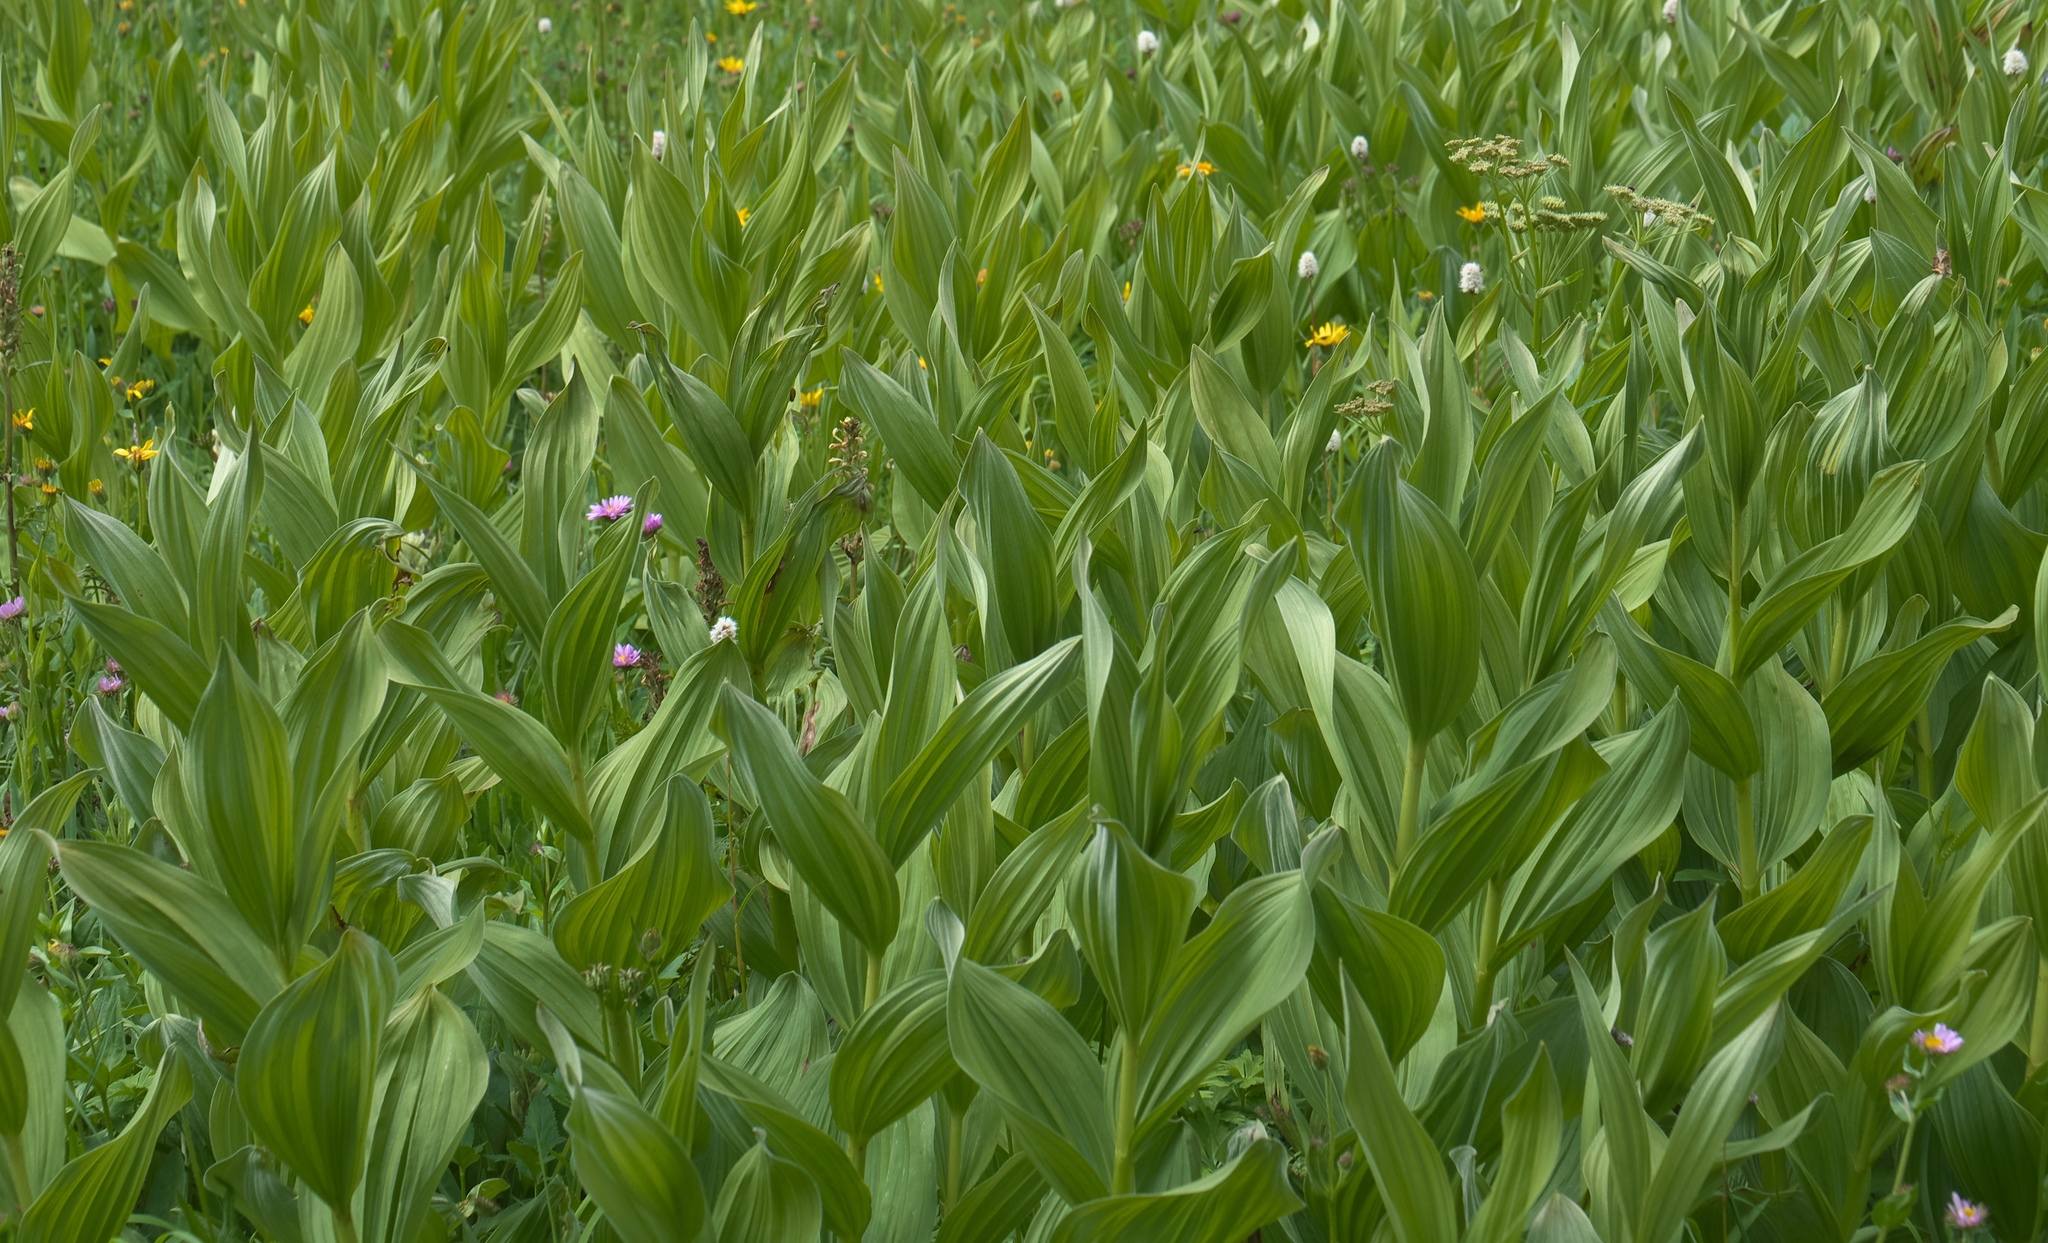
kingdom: Plantae
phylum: Tracheophyta
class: Liliopsida
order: Liliales
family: Melanthiaceae
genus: Veratrum
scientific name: Veratrum californicum
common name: California veratrum
